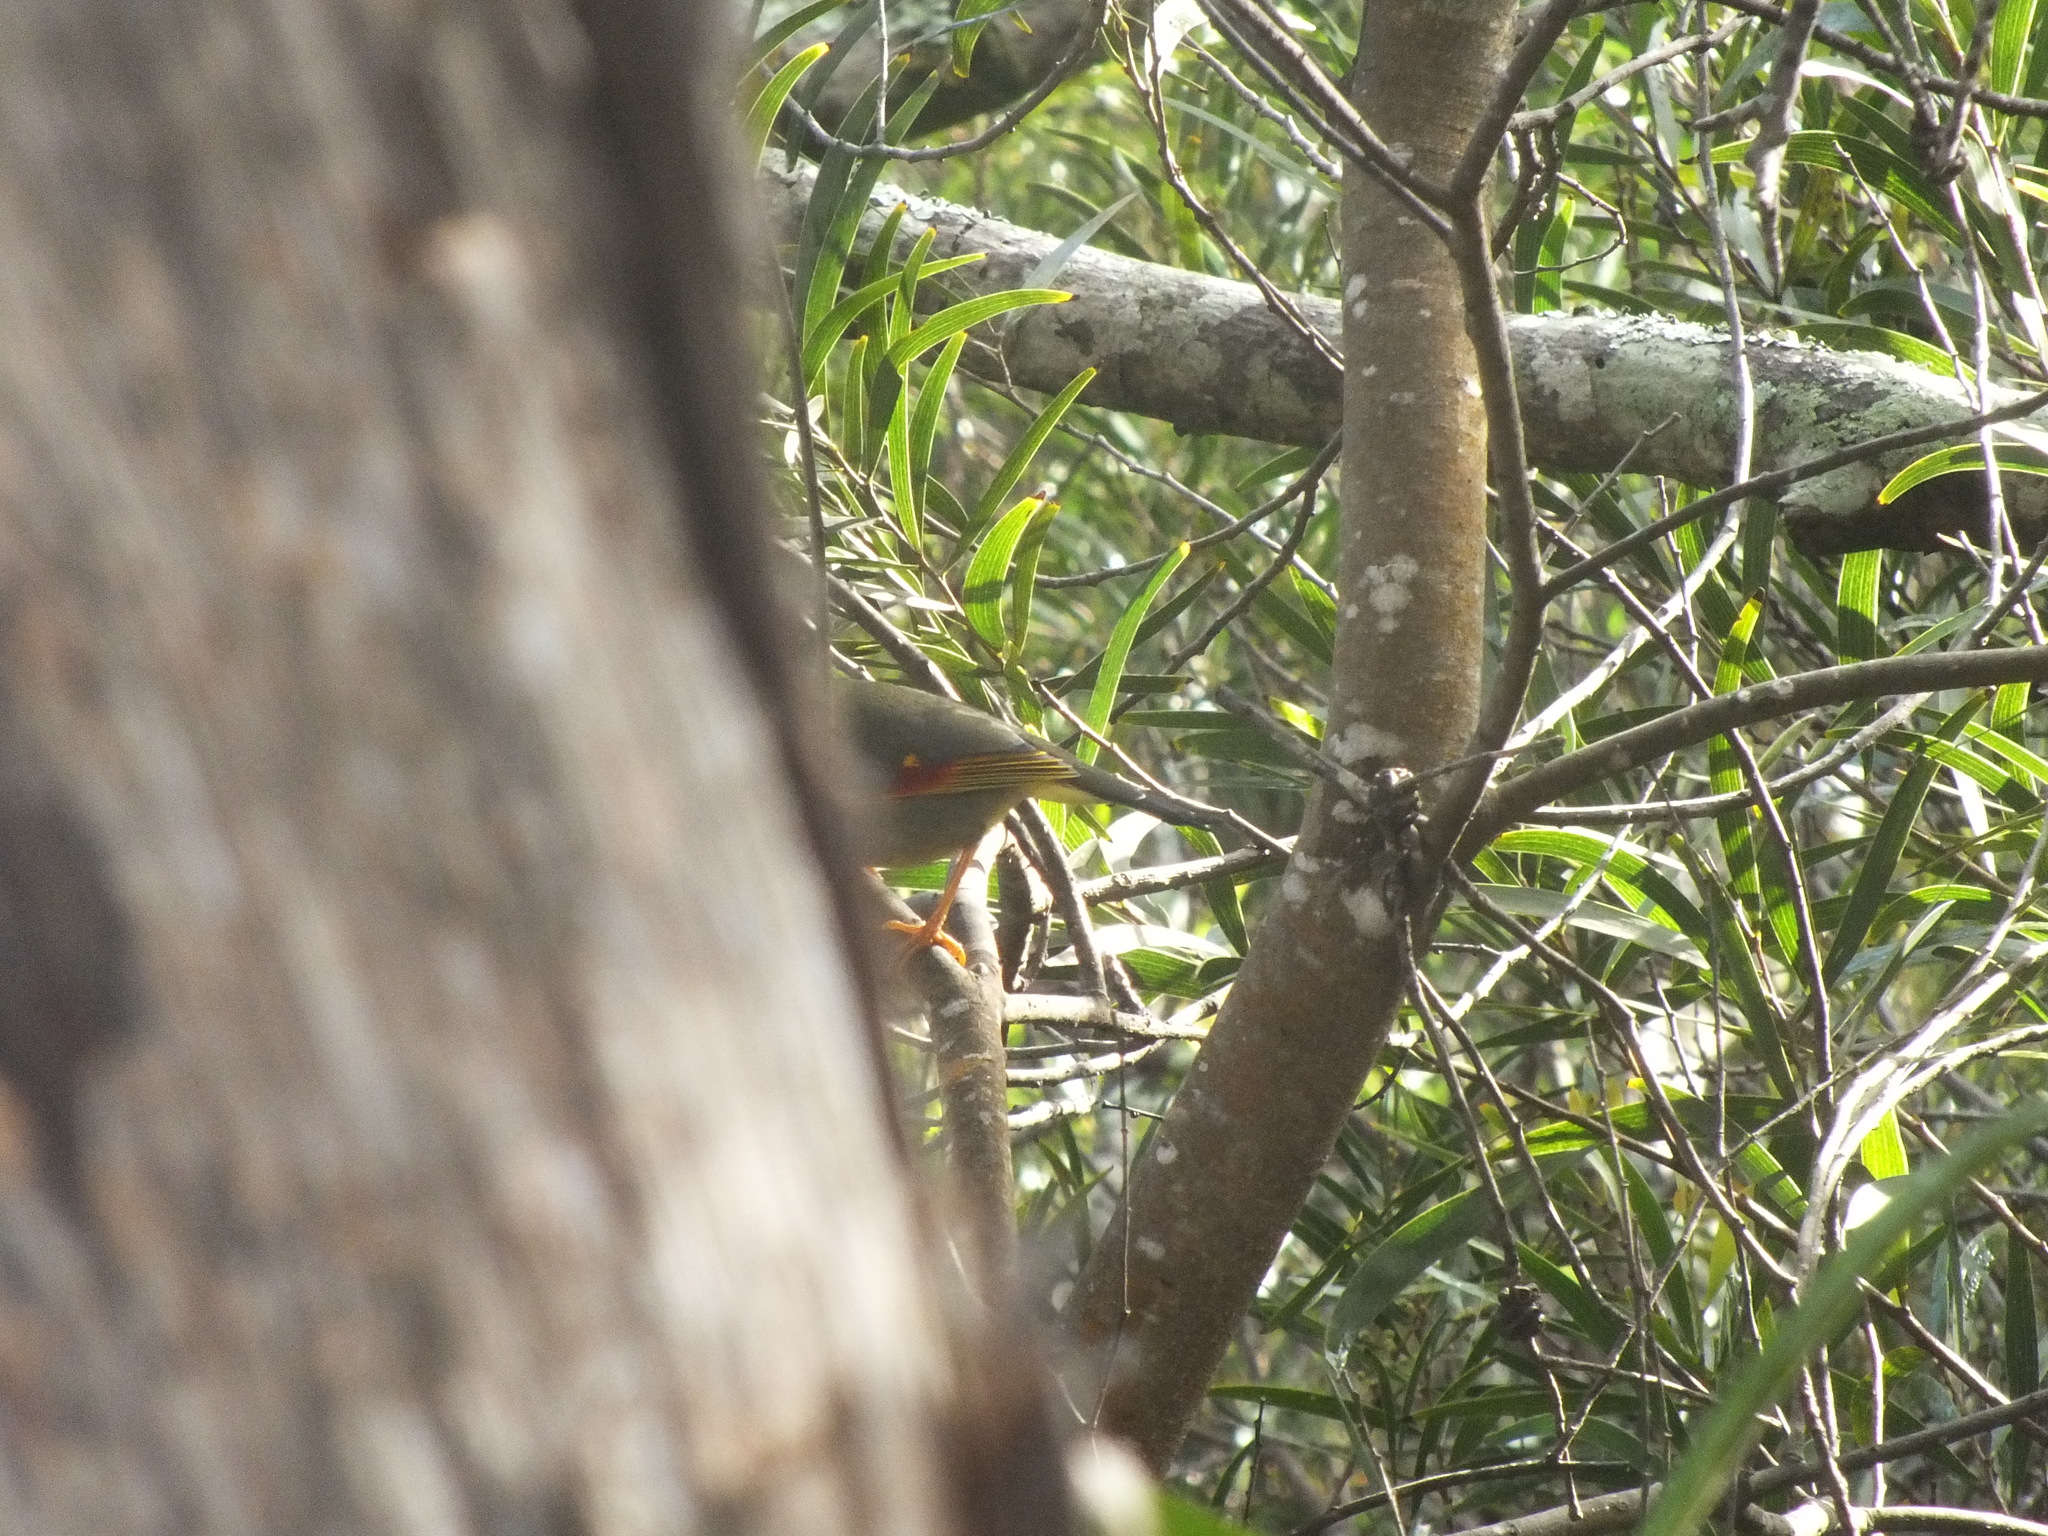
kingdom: Animalia
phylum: Chordata
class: Aves
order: Passeriformes
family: Leiothrichidae
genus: Leiothrix
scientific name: Leiothrix lutea
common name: Red-billed leiothrix
